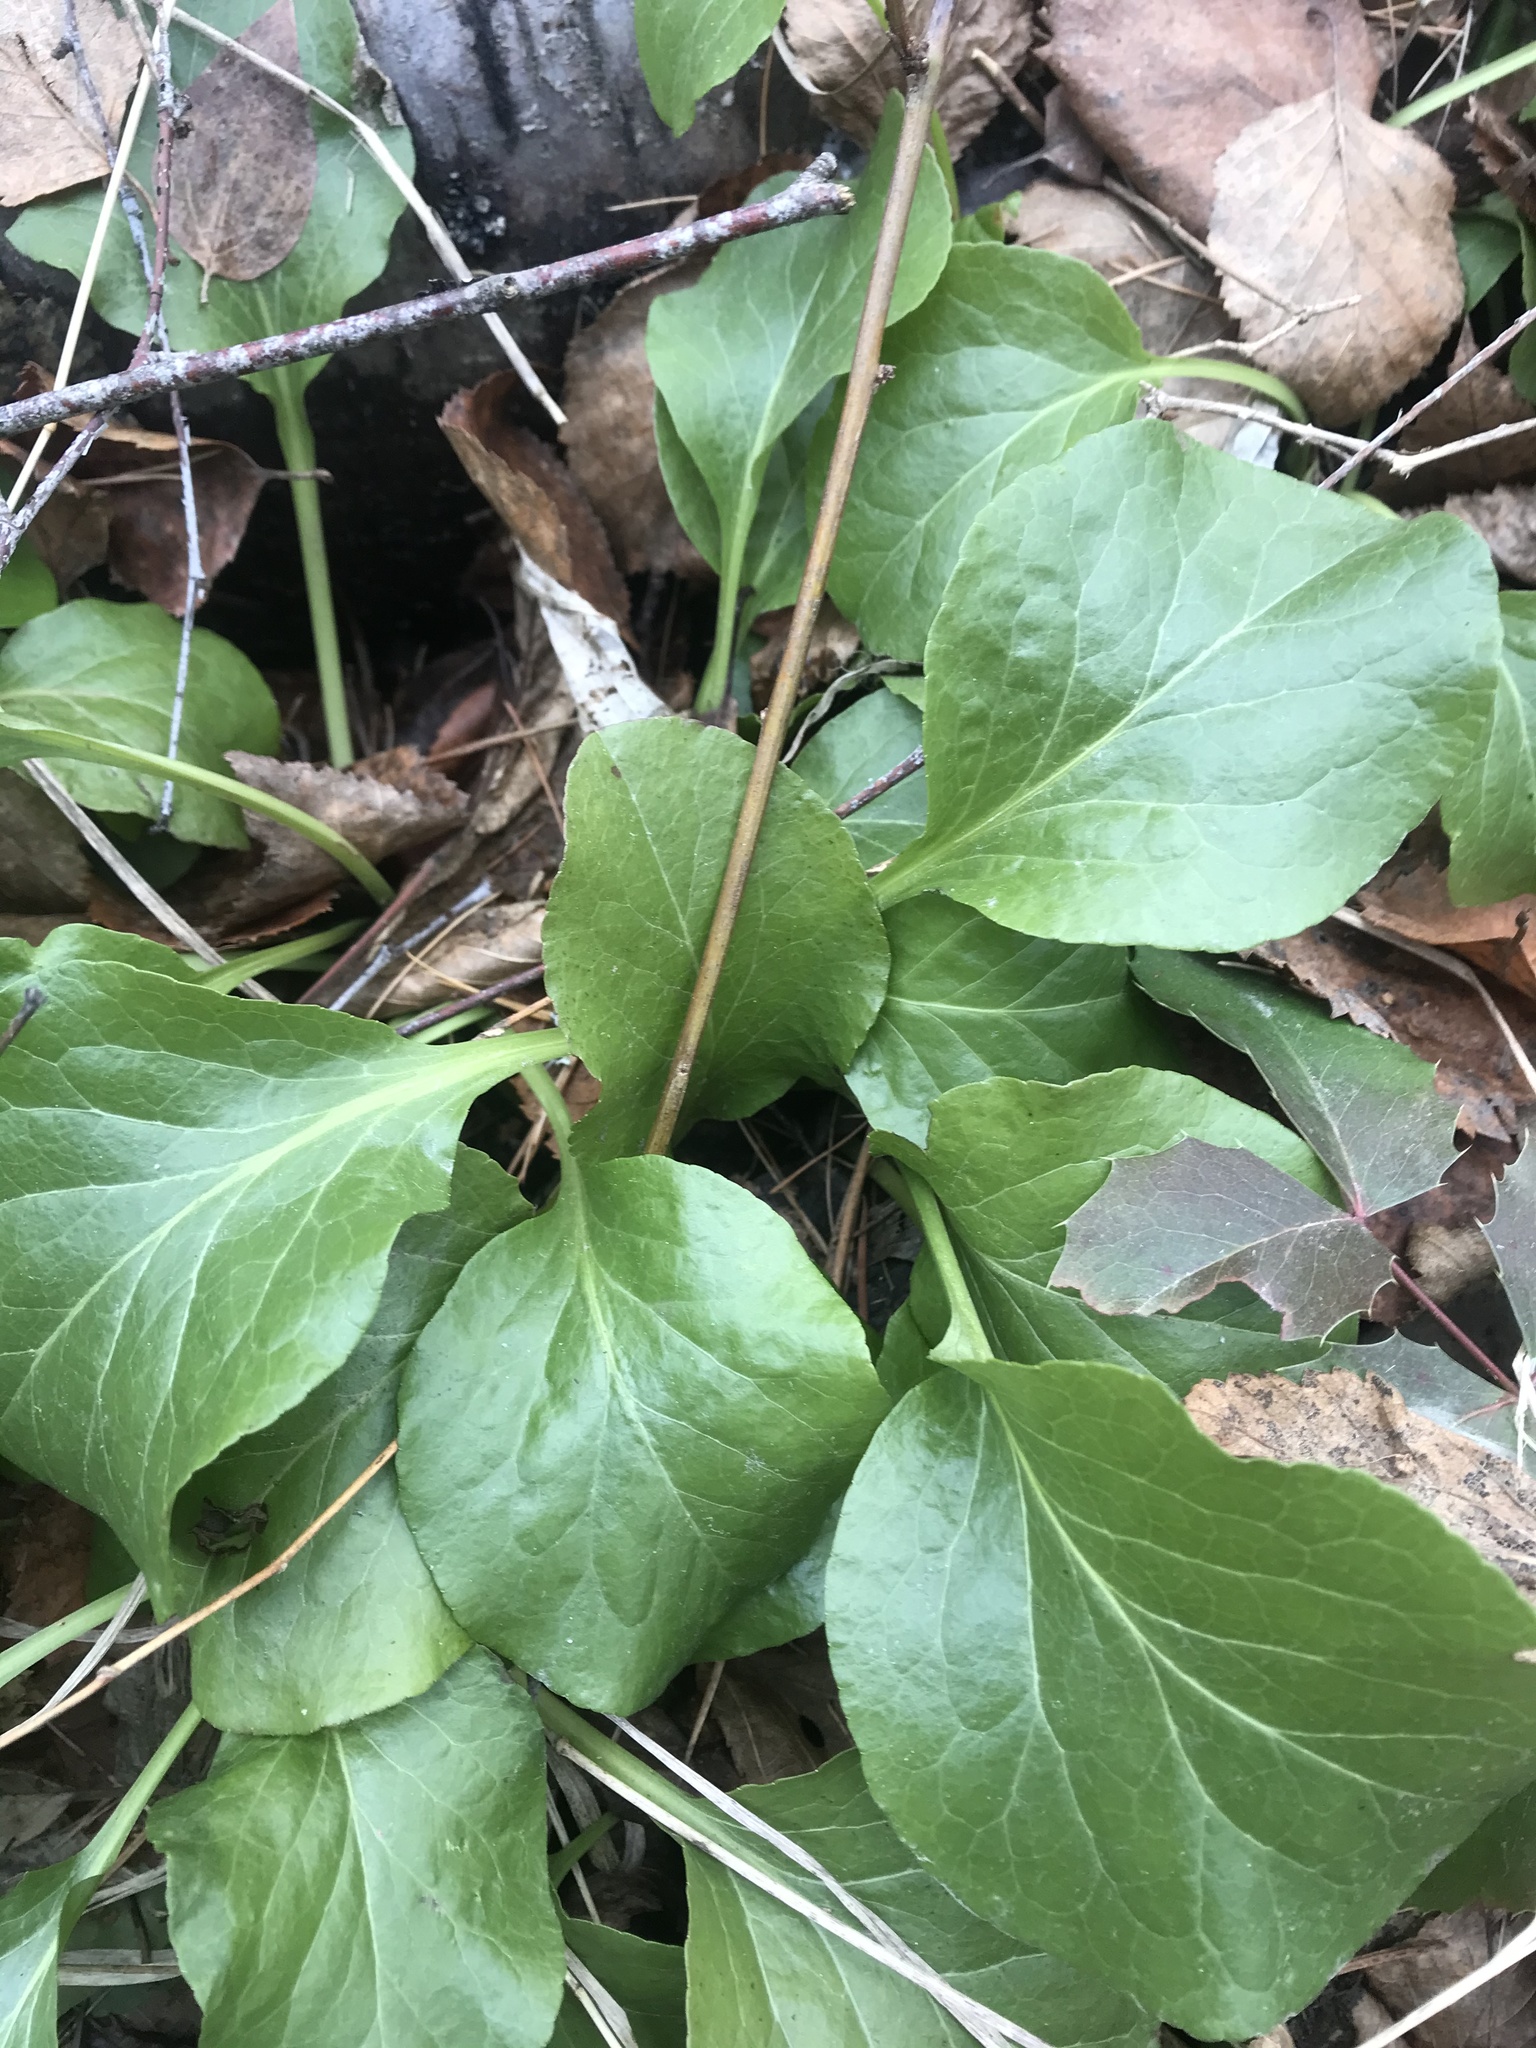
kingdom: Plantae
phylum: Tracheophyta
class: Magnoliopsida
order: Ericales
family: Ericaceae
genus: Pyrola
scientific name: Pyrola asarifolia
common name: Bog wintergreen
